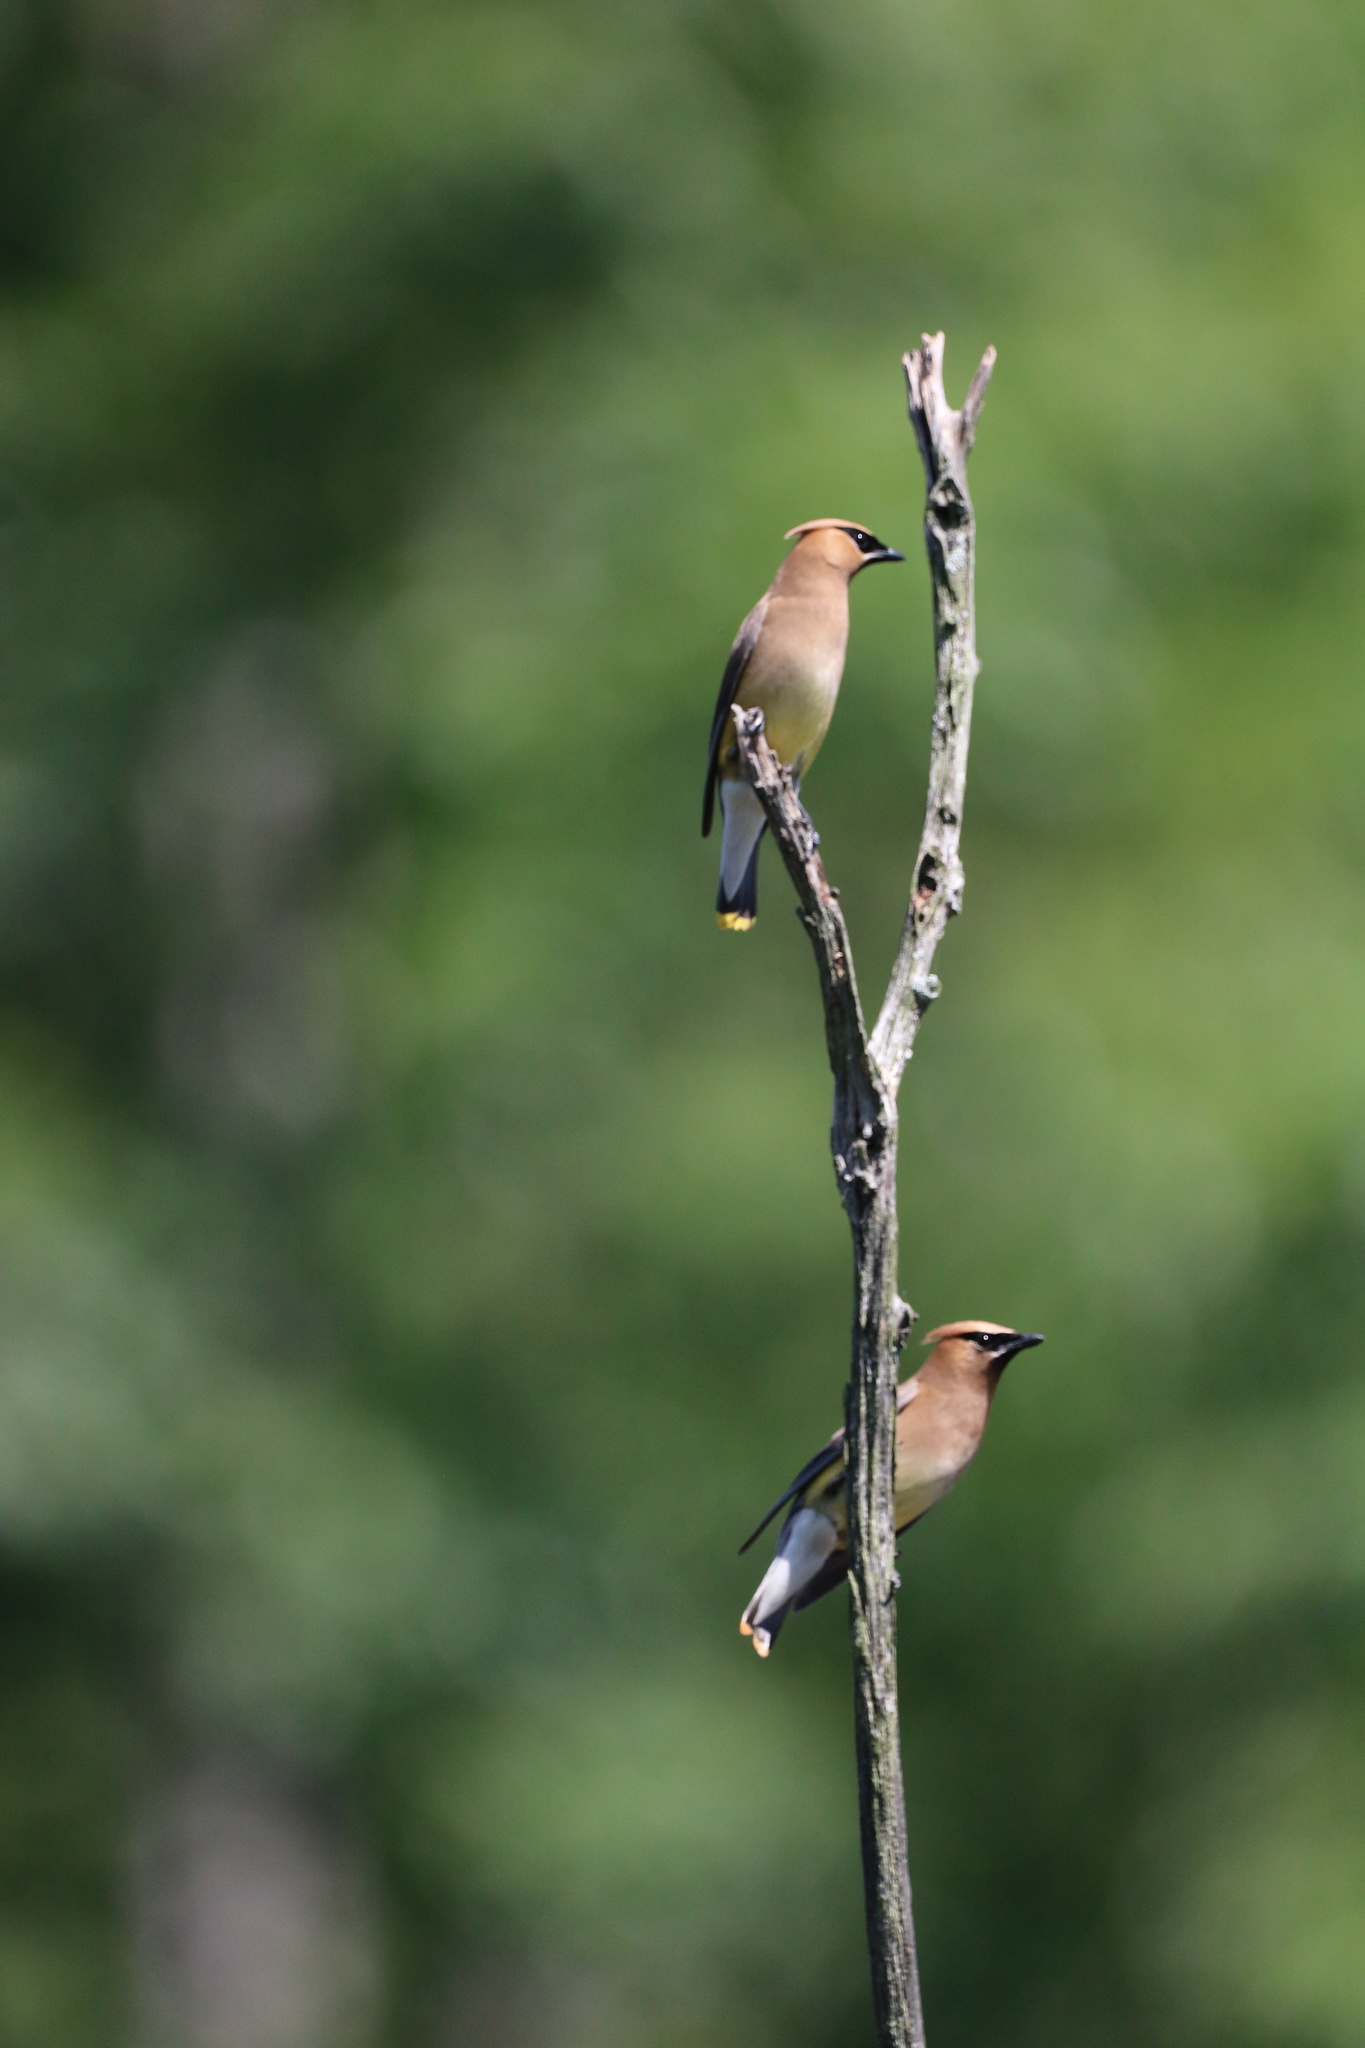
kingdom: Animalia
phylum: Chordata
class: Aves
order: Passeriformes
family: Bombycillidae
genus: Bombycilla
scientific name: Bombycilla cedrorum
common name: Cedar waxwing
